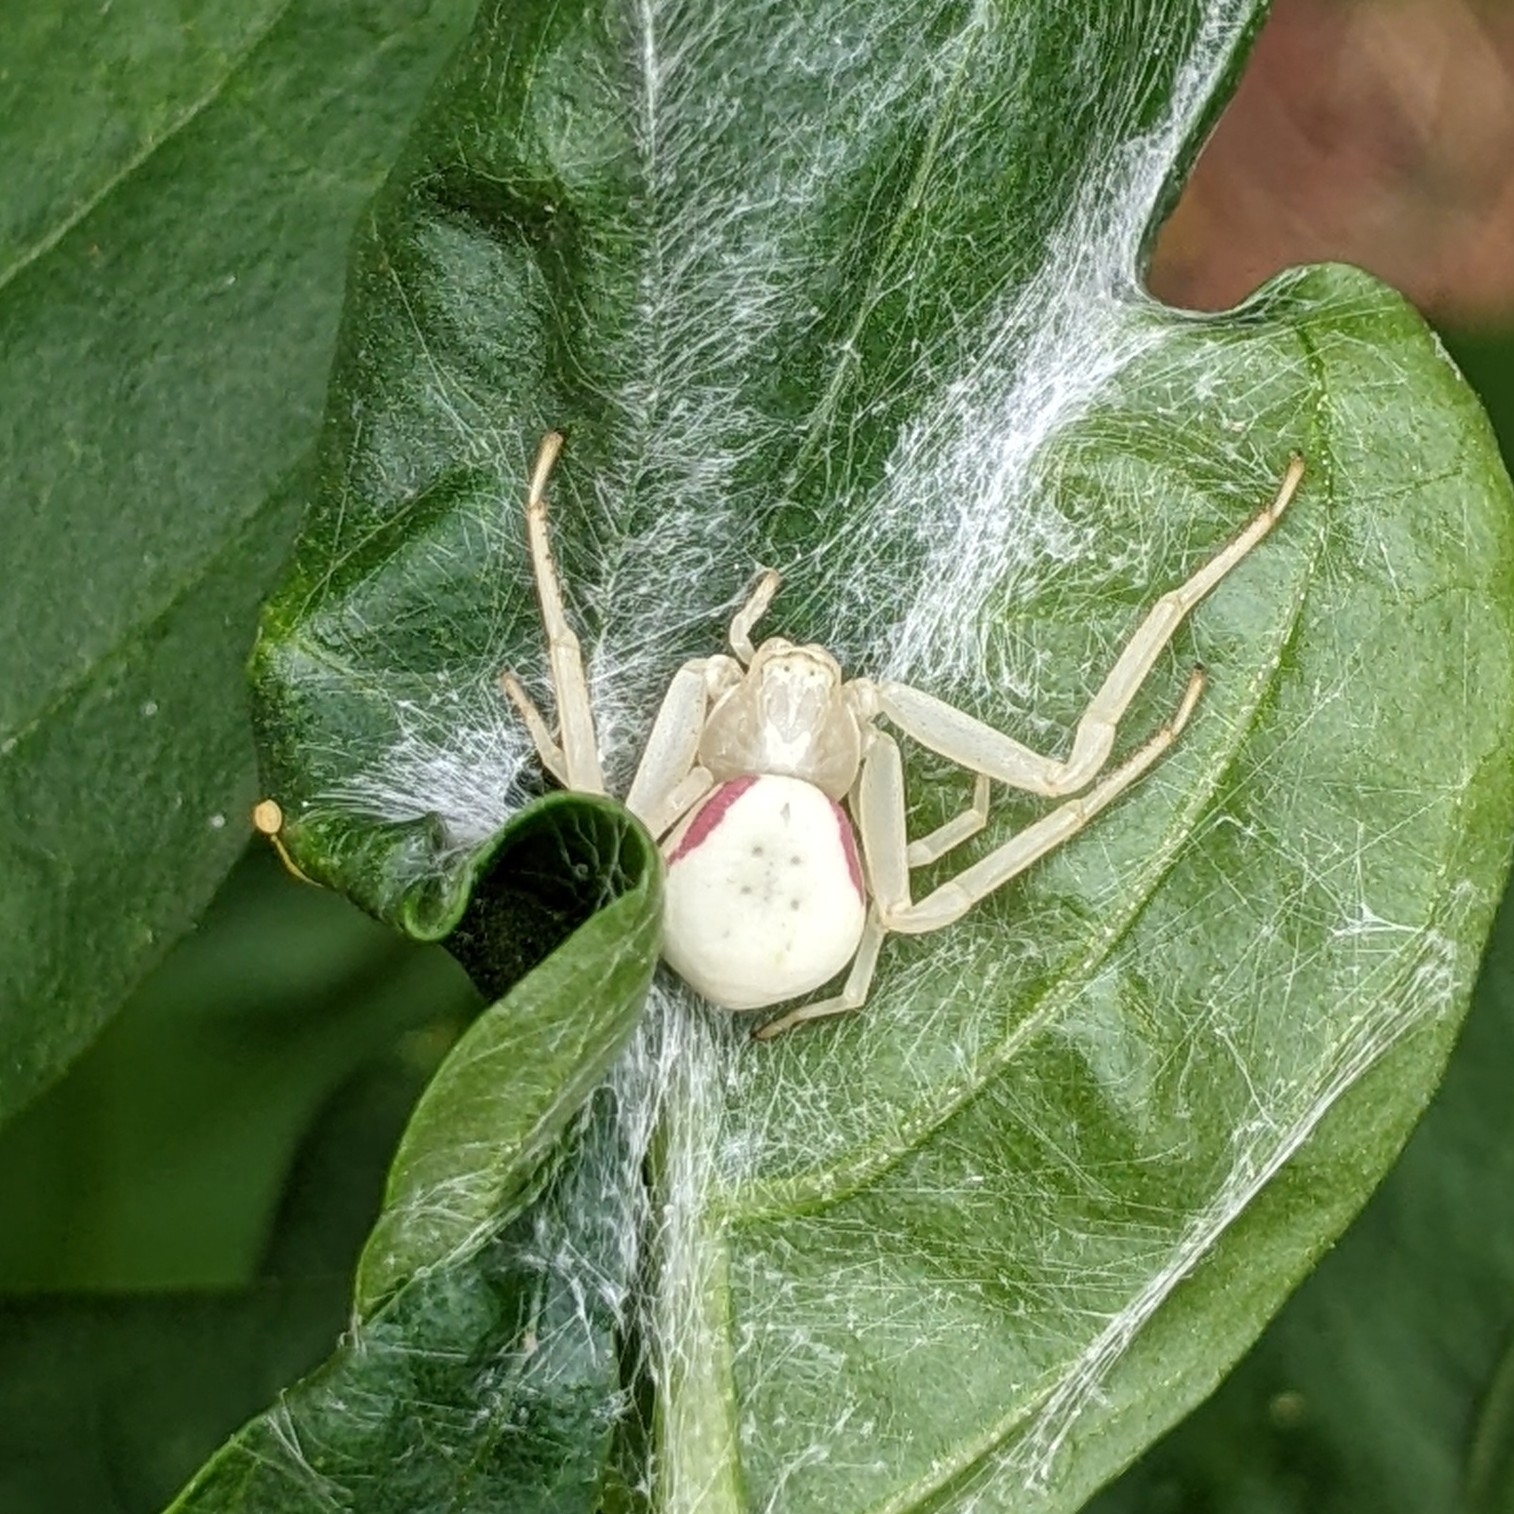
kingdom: Animalia
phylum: Arthropoda
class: Arachnida
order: Araneae
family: Thomisidae
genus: Misumena
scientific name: Misumena vatia
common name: Goldenrod crab spider
